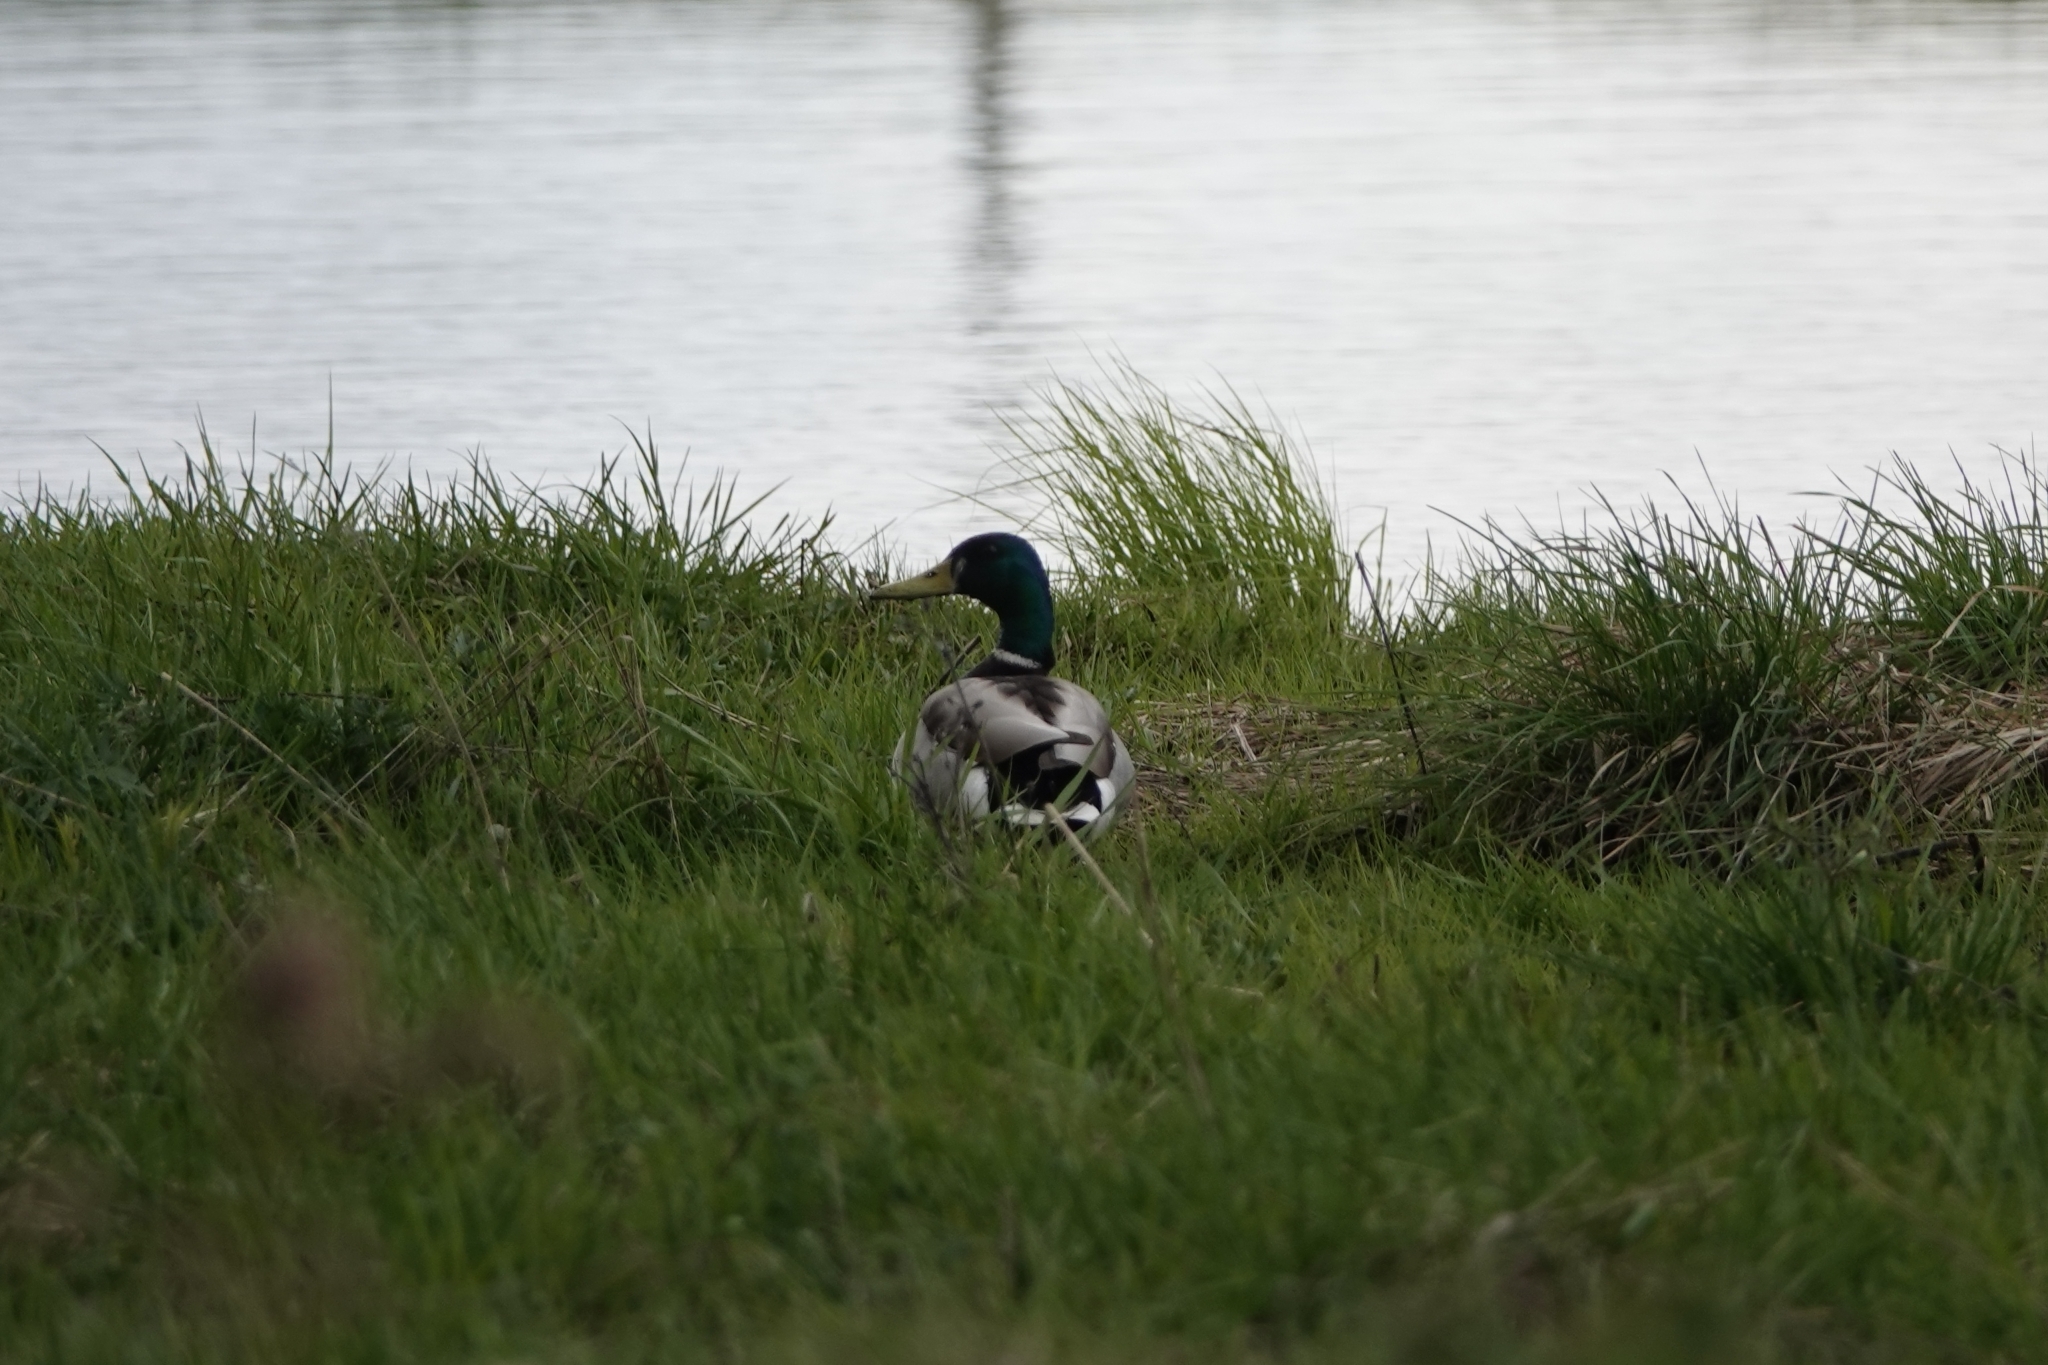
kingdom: Animalia
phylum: Chordata
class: Aves
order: Anseriformes
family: Anatidae
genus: Anas
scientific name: Anas platyrhynchos
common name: Mallard
